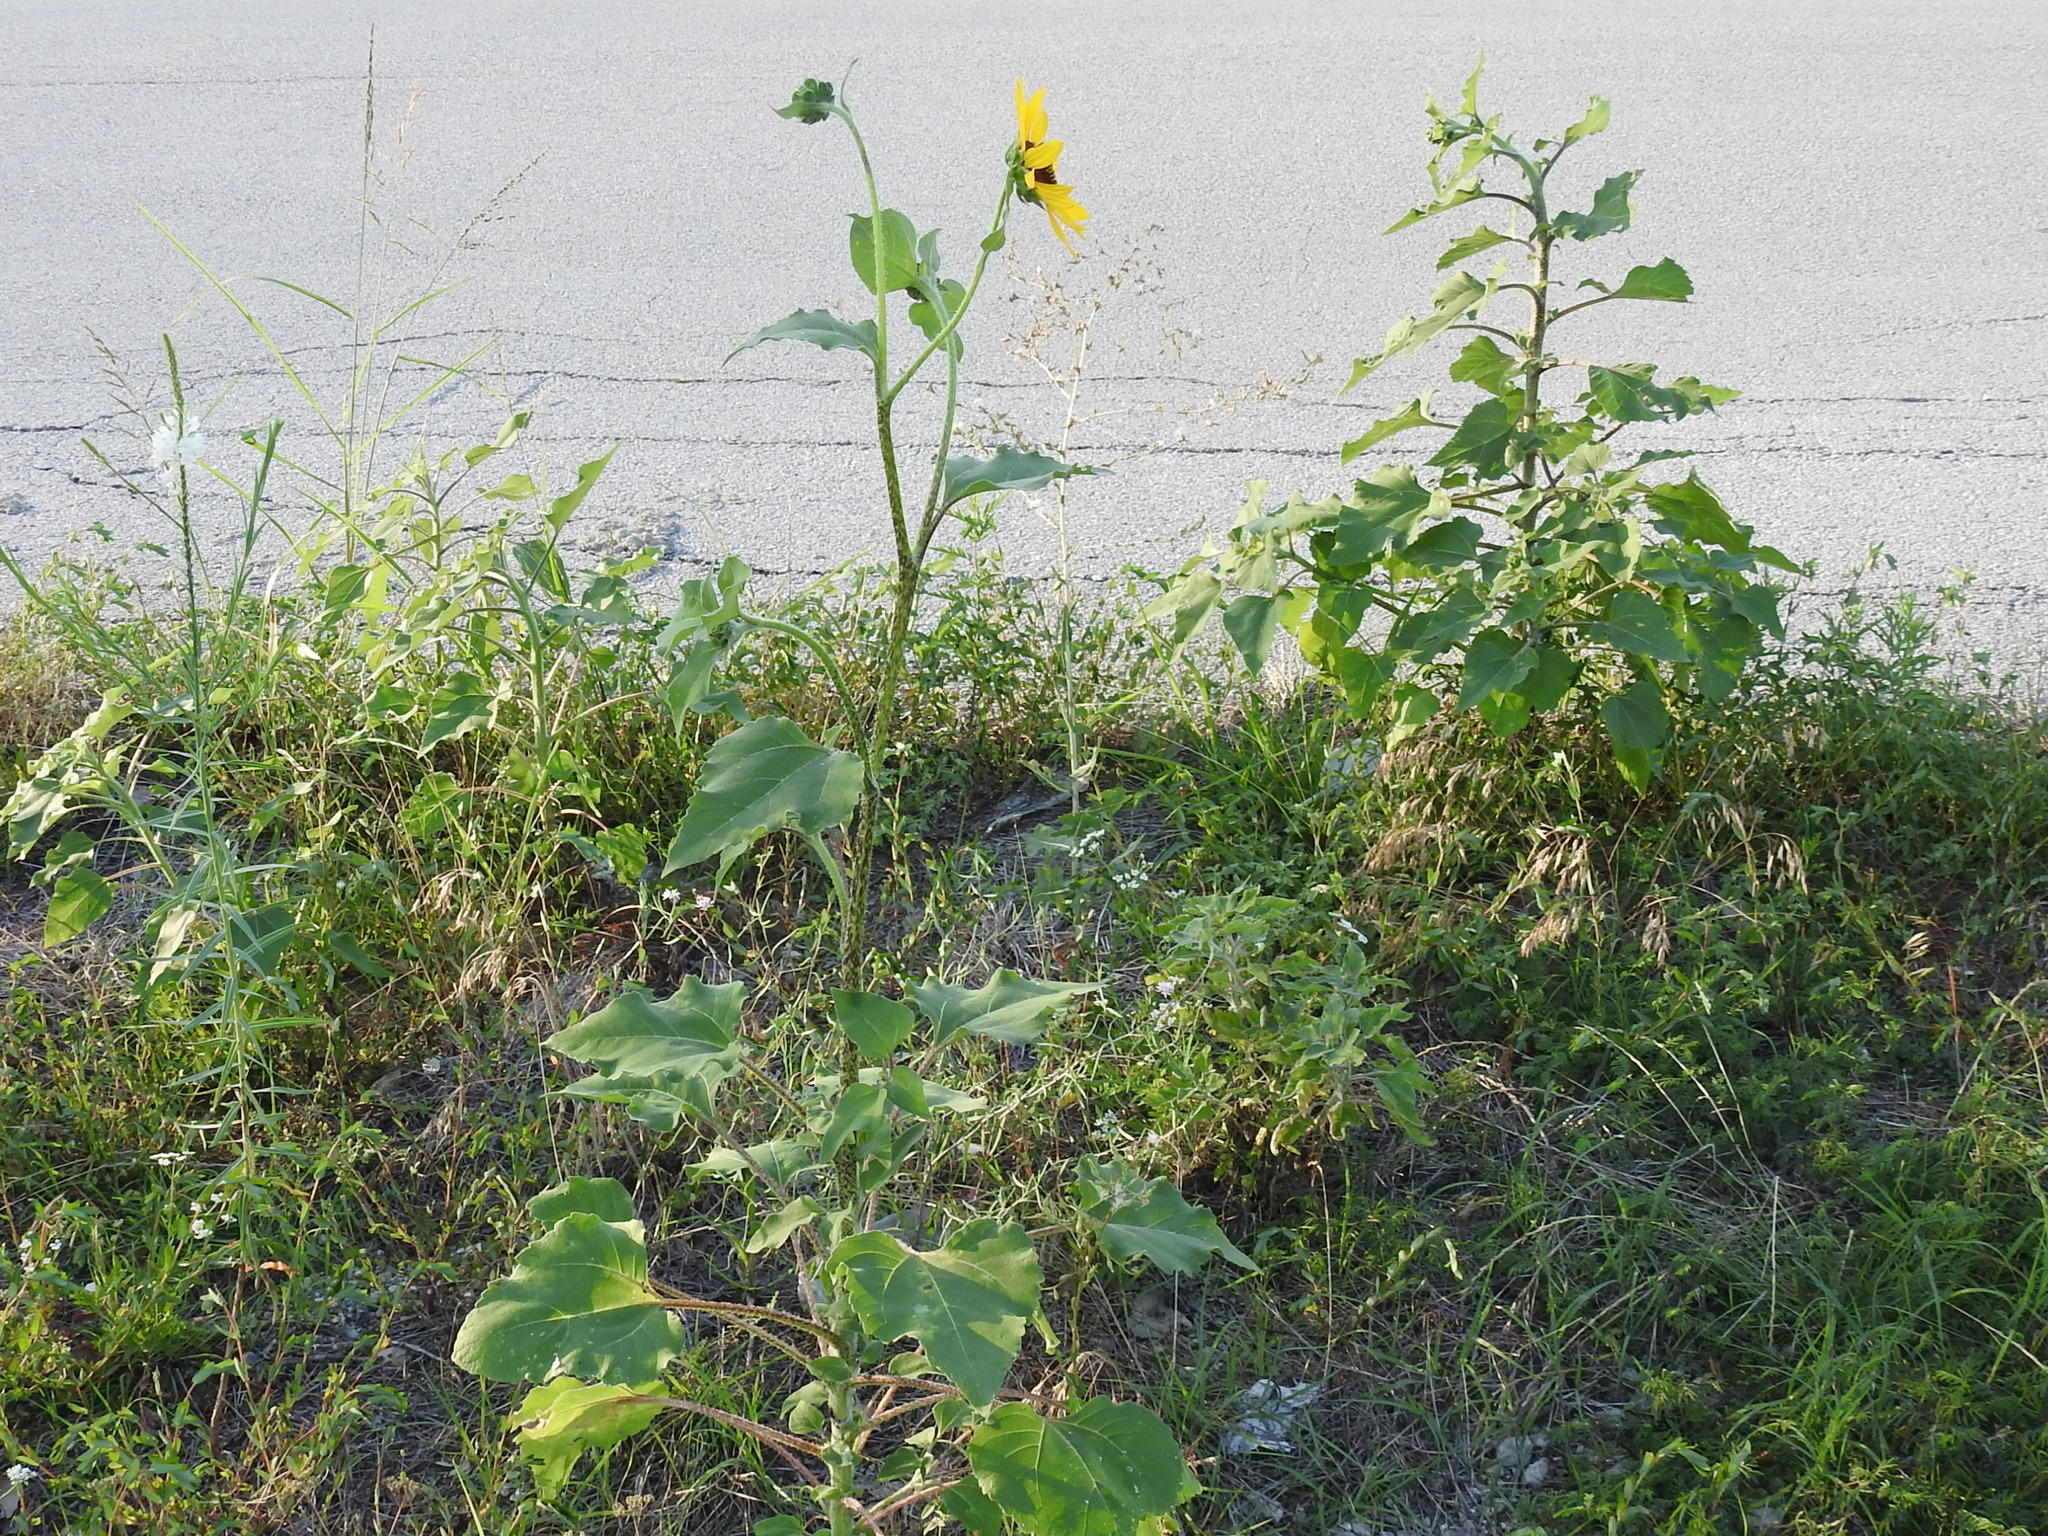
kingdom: Plantae
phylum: Tracheophyta
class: Magnoliopsida
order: Asterales
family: Asteraceae
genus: Helianthus
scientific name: Helianthus annuus
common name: Sunflower
